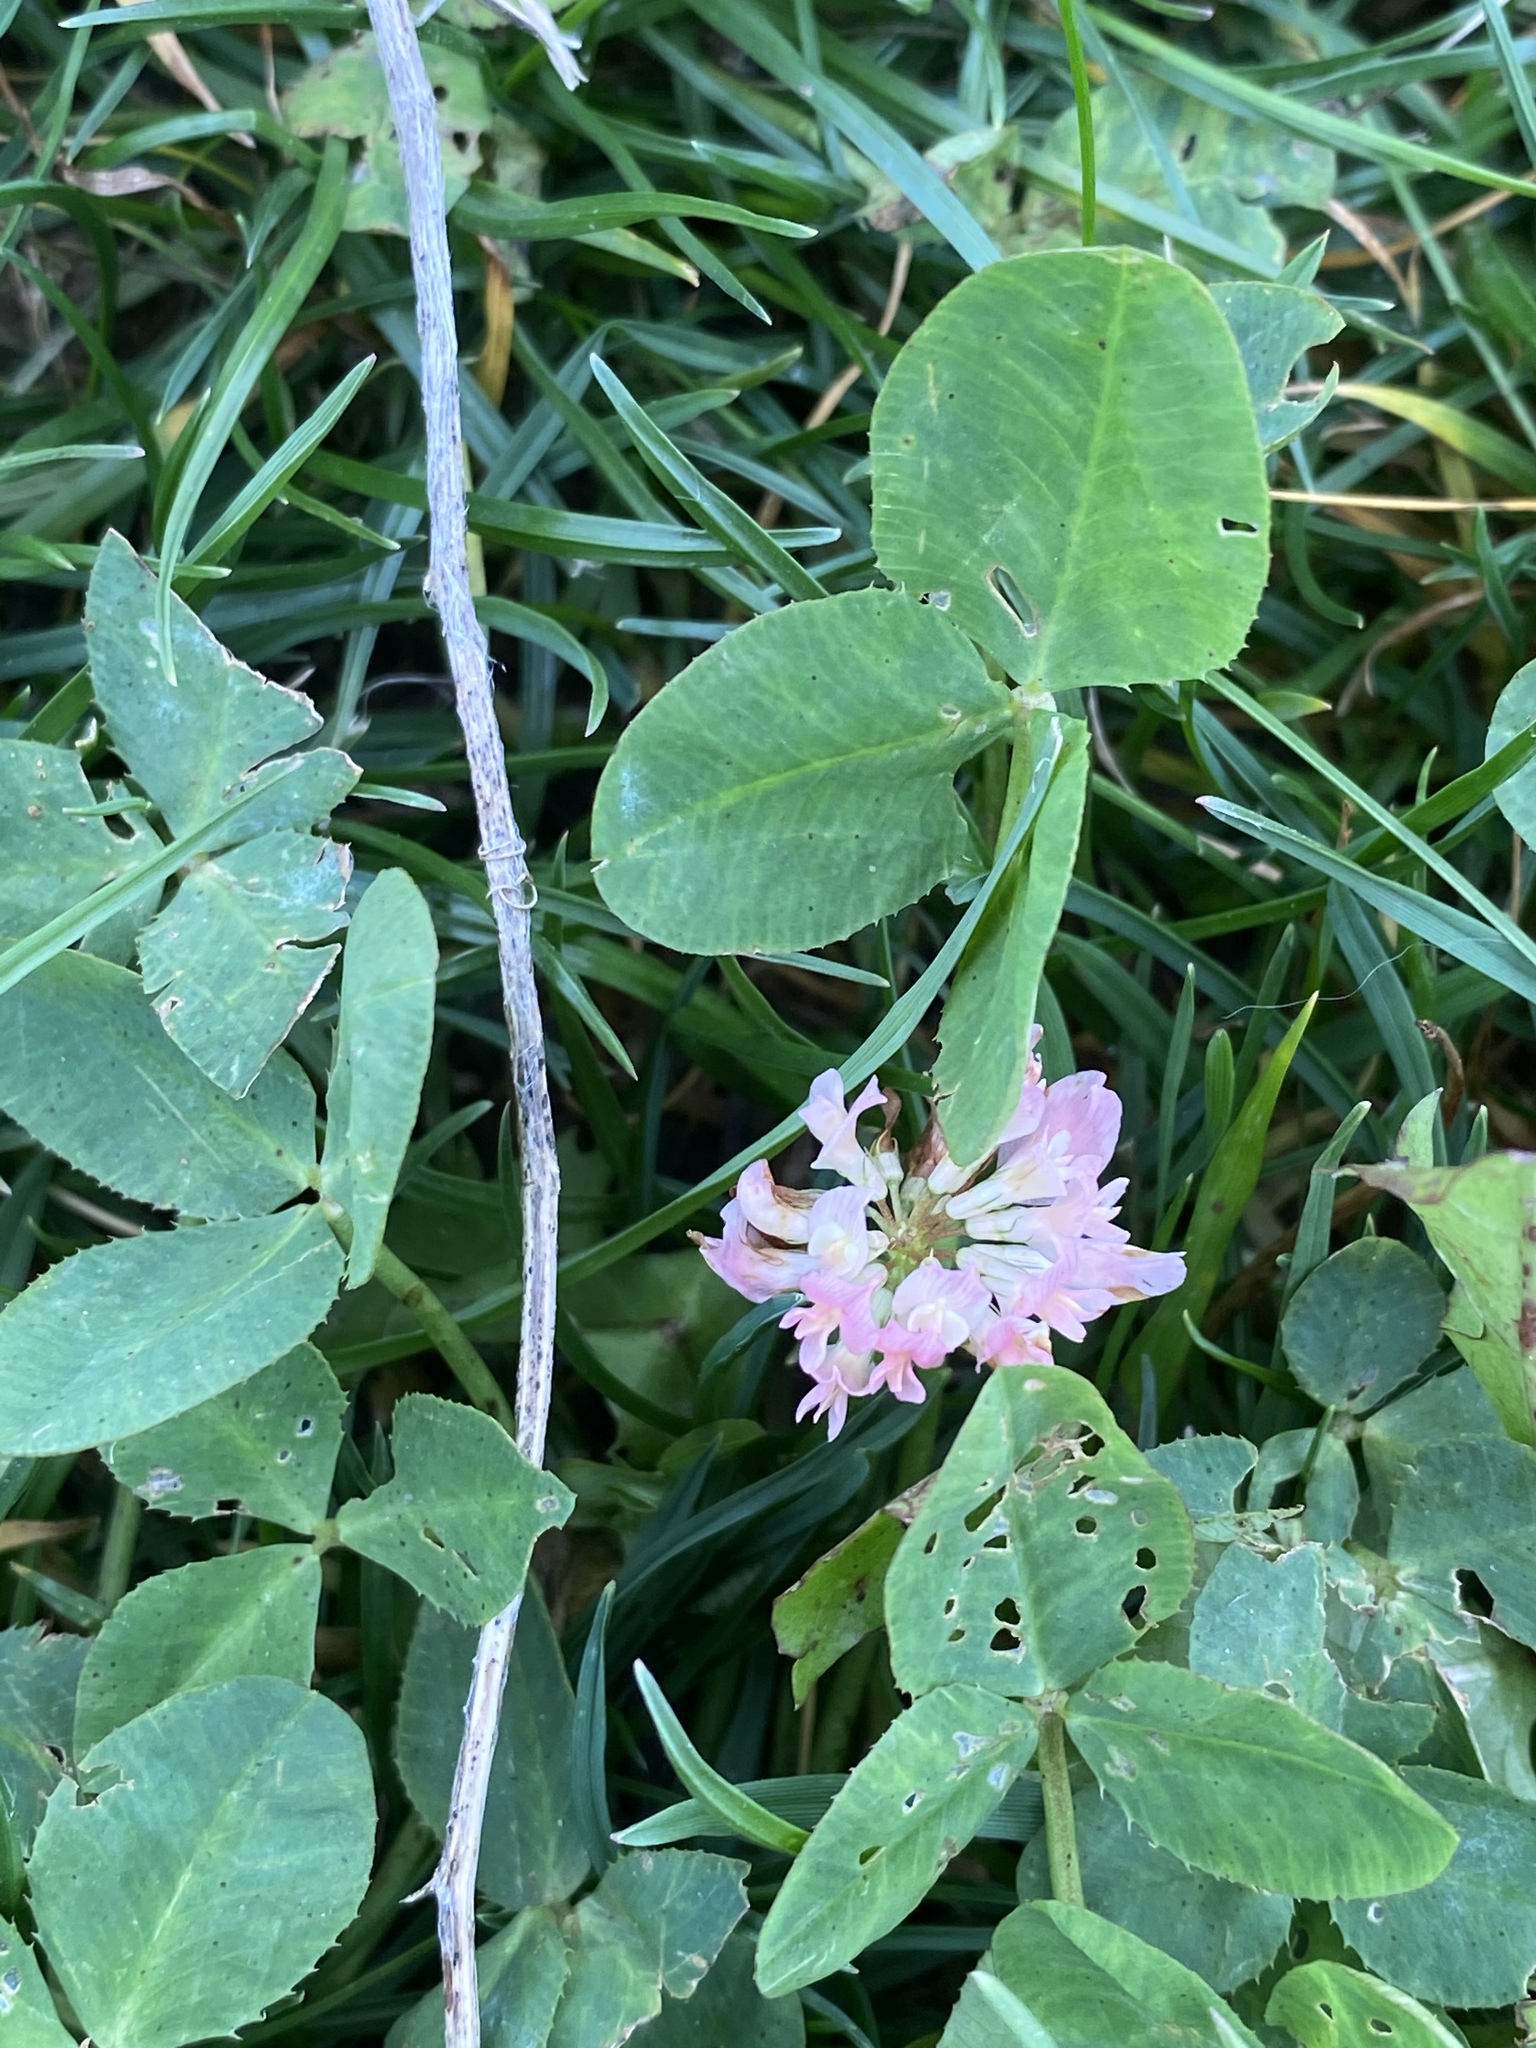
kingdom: Plantae
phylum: Tracheophyta
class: Magnoliopsida
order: Fabales
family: Fabaceae
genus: Trifolium
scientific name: Trifolium hybridum
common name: Alsike clover
